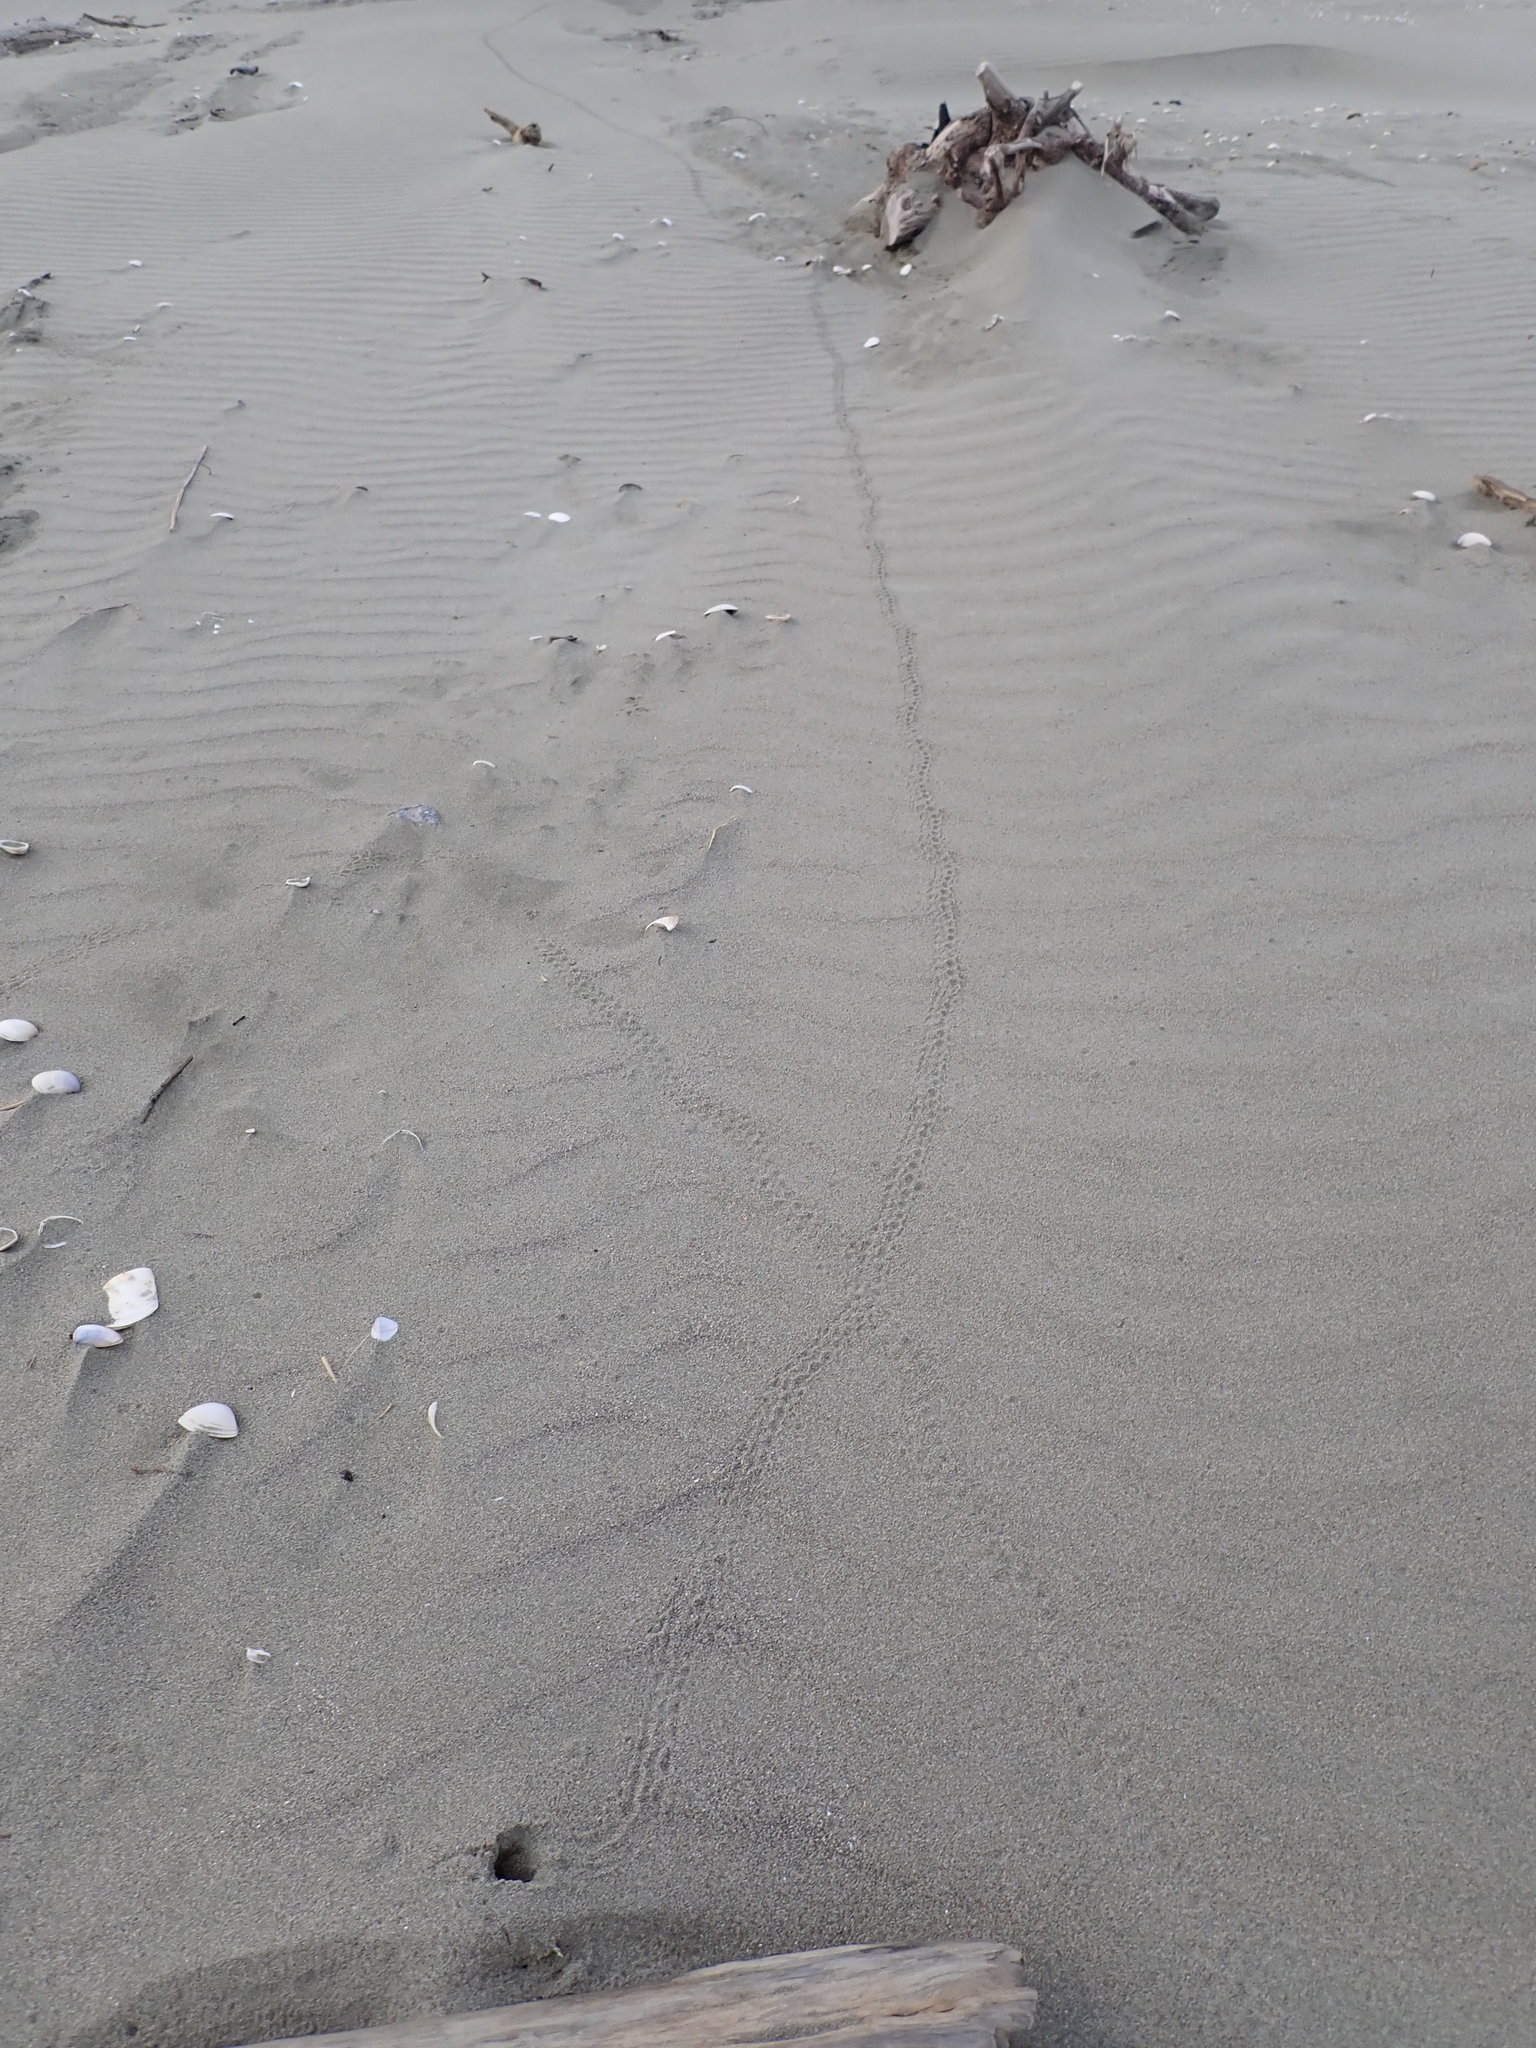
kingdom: Animalia
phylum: Arthropoda
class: Insecta
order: Coleoptera
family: Scarabaeidae
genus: Pericoptus
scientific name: Pericoptus truncatus
